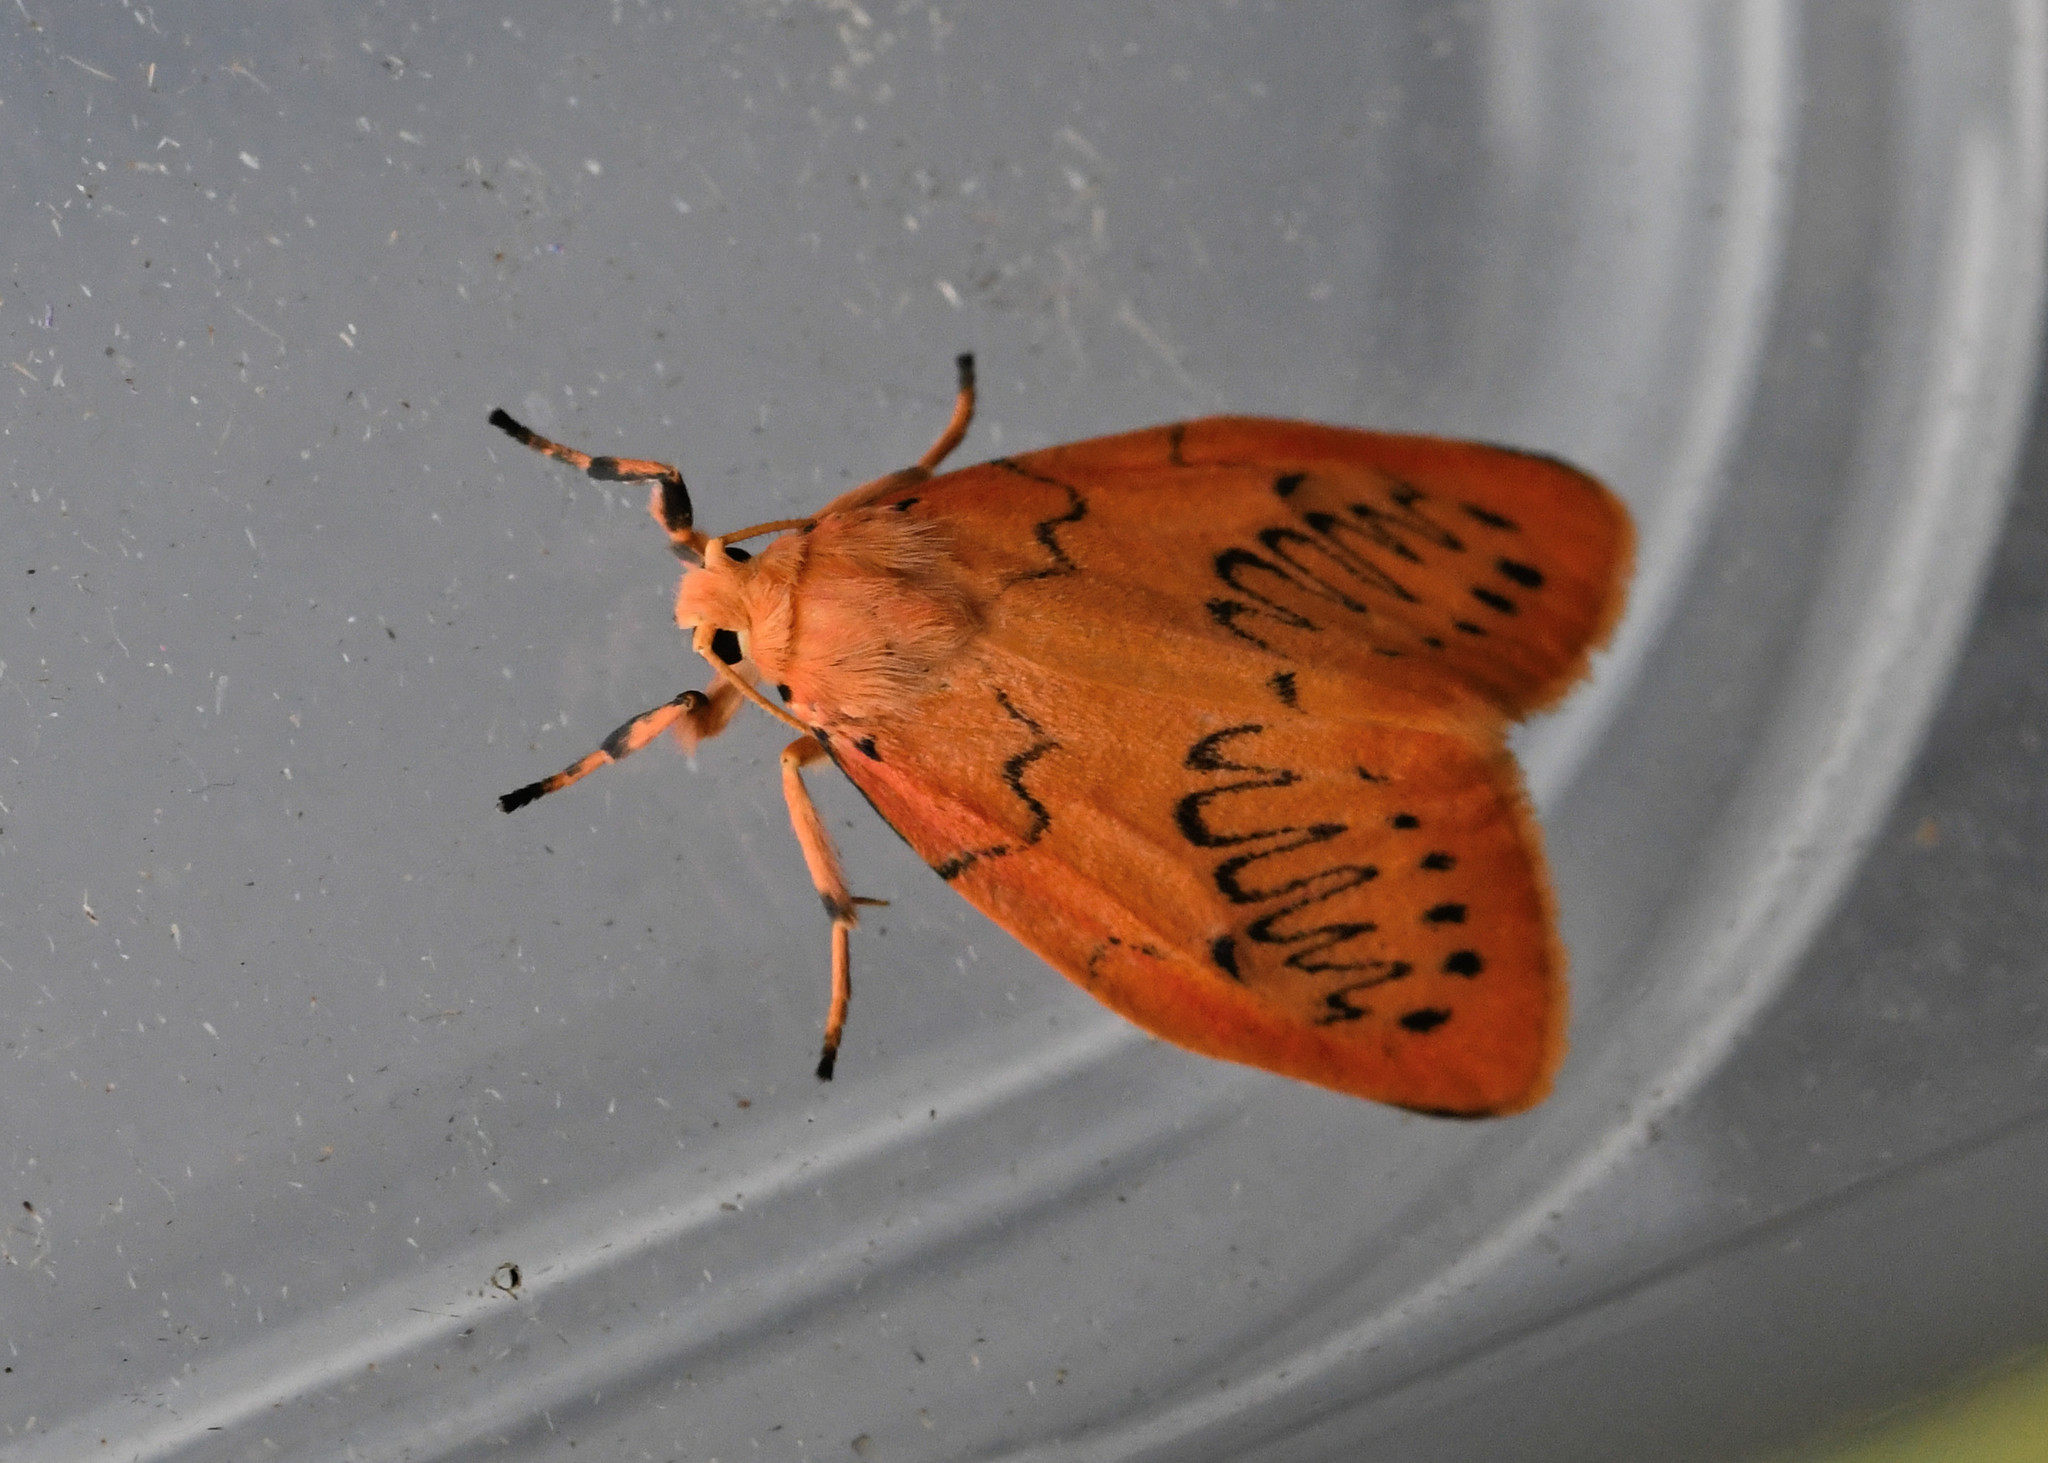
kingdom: Animalia
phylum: Arthropoda
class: Insecta
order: Lepidoptera
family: Erebidae
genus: Miltochrista
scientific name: Miltochrista miniata
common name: Rosy footman
